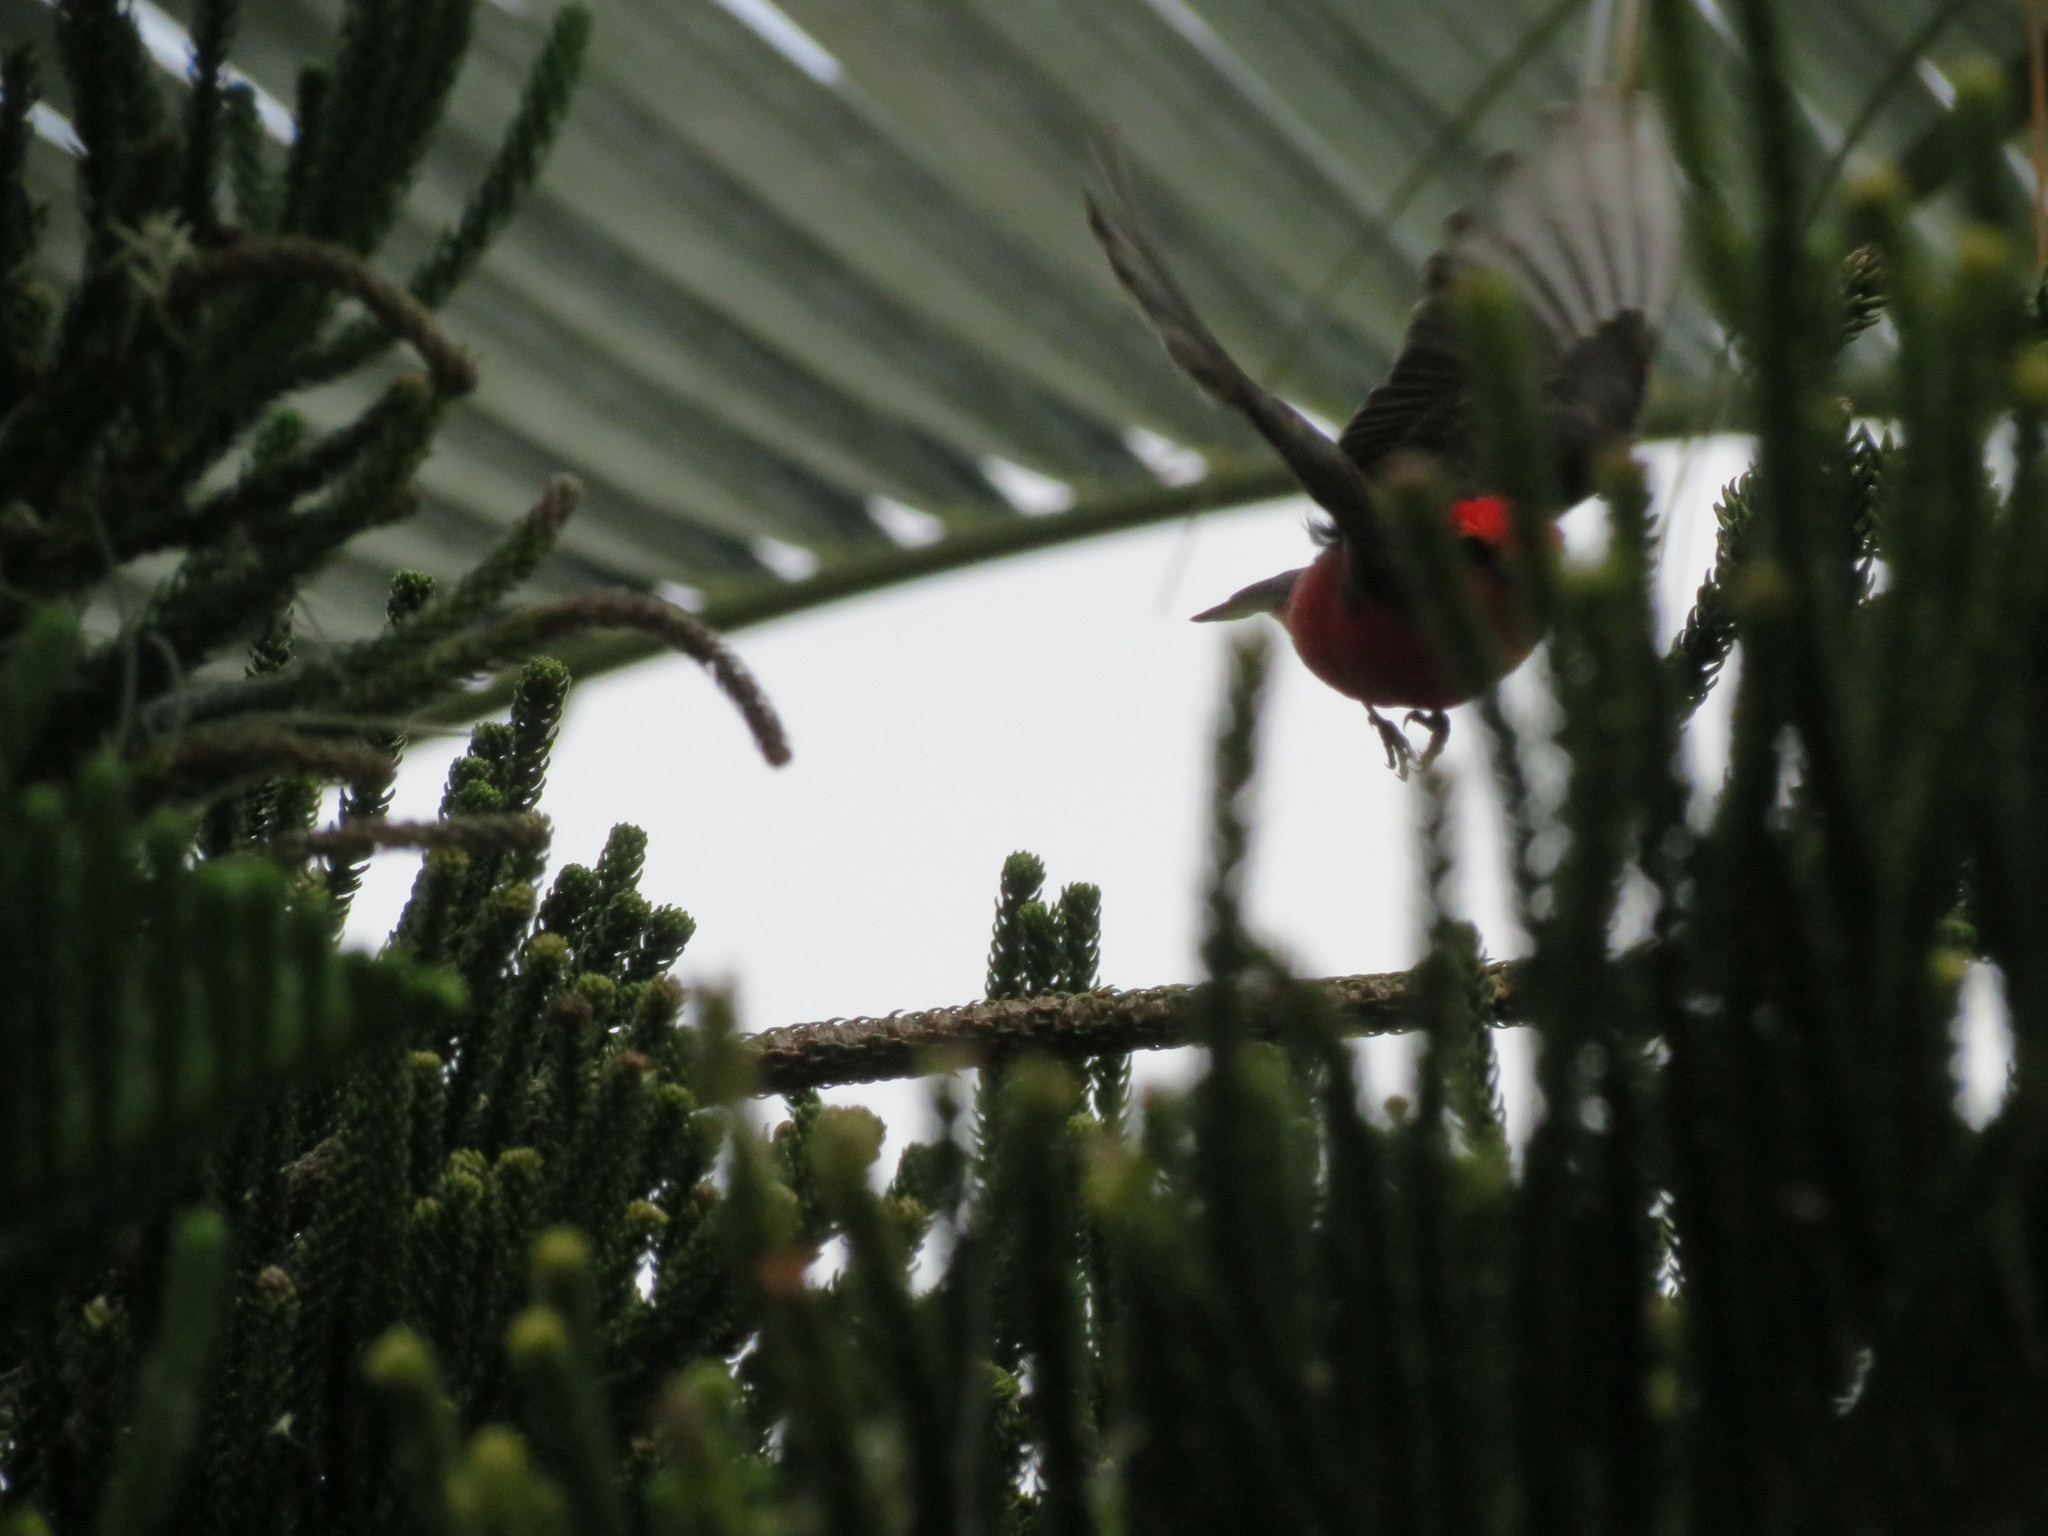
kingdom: Animalia
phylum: Chordata
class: Aves
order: Passeriformes
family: Tyrannidae
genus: Pyrocephalus
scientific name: Pyrocephalus rubinus
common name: Vermilion flycatcher
